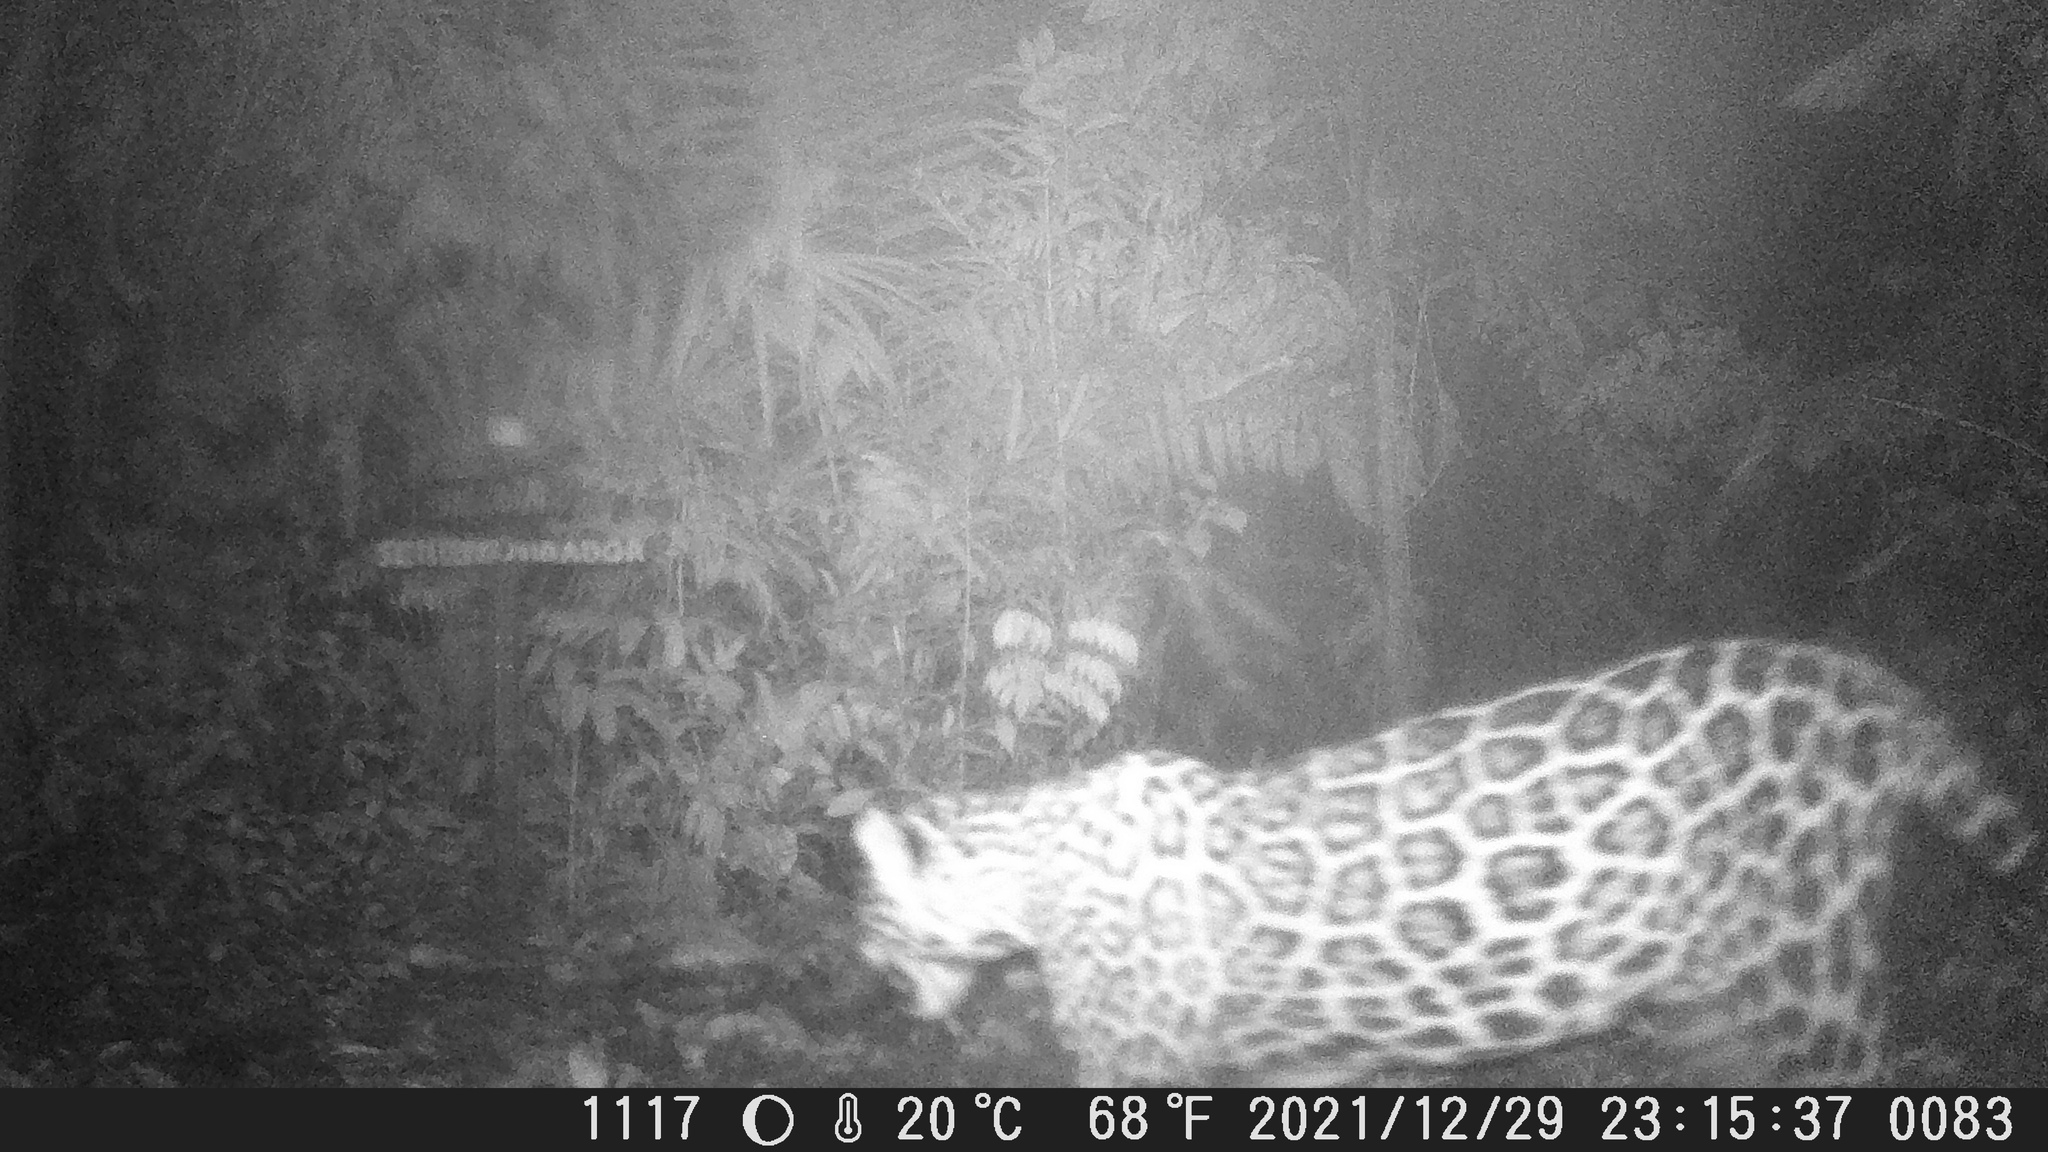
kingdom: Animalia
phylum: Chordata
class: Mammalia
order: Carnivora
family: Felidae
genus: Panthera
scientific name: Panthera onca
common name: Jaguar
